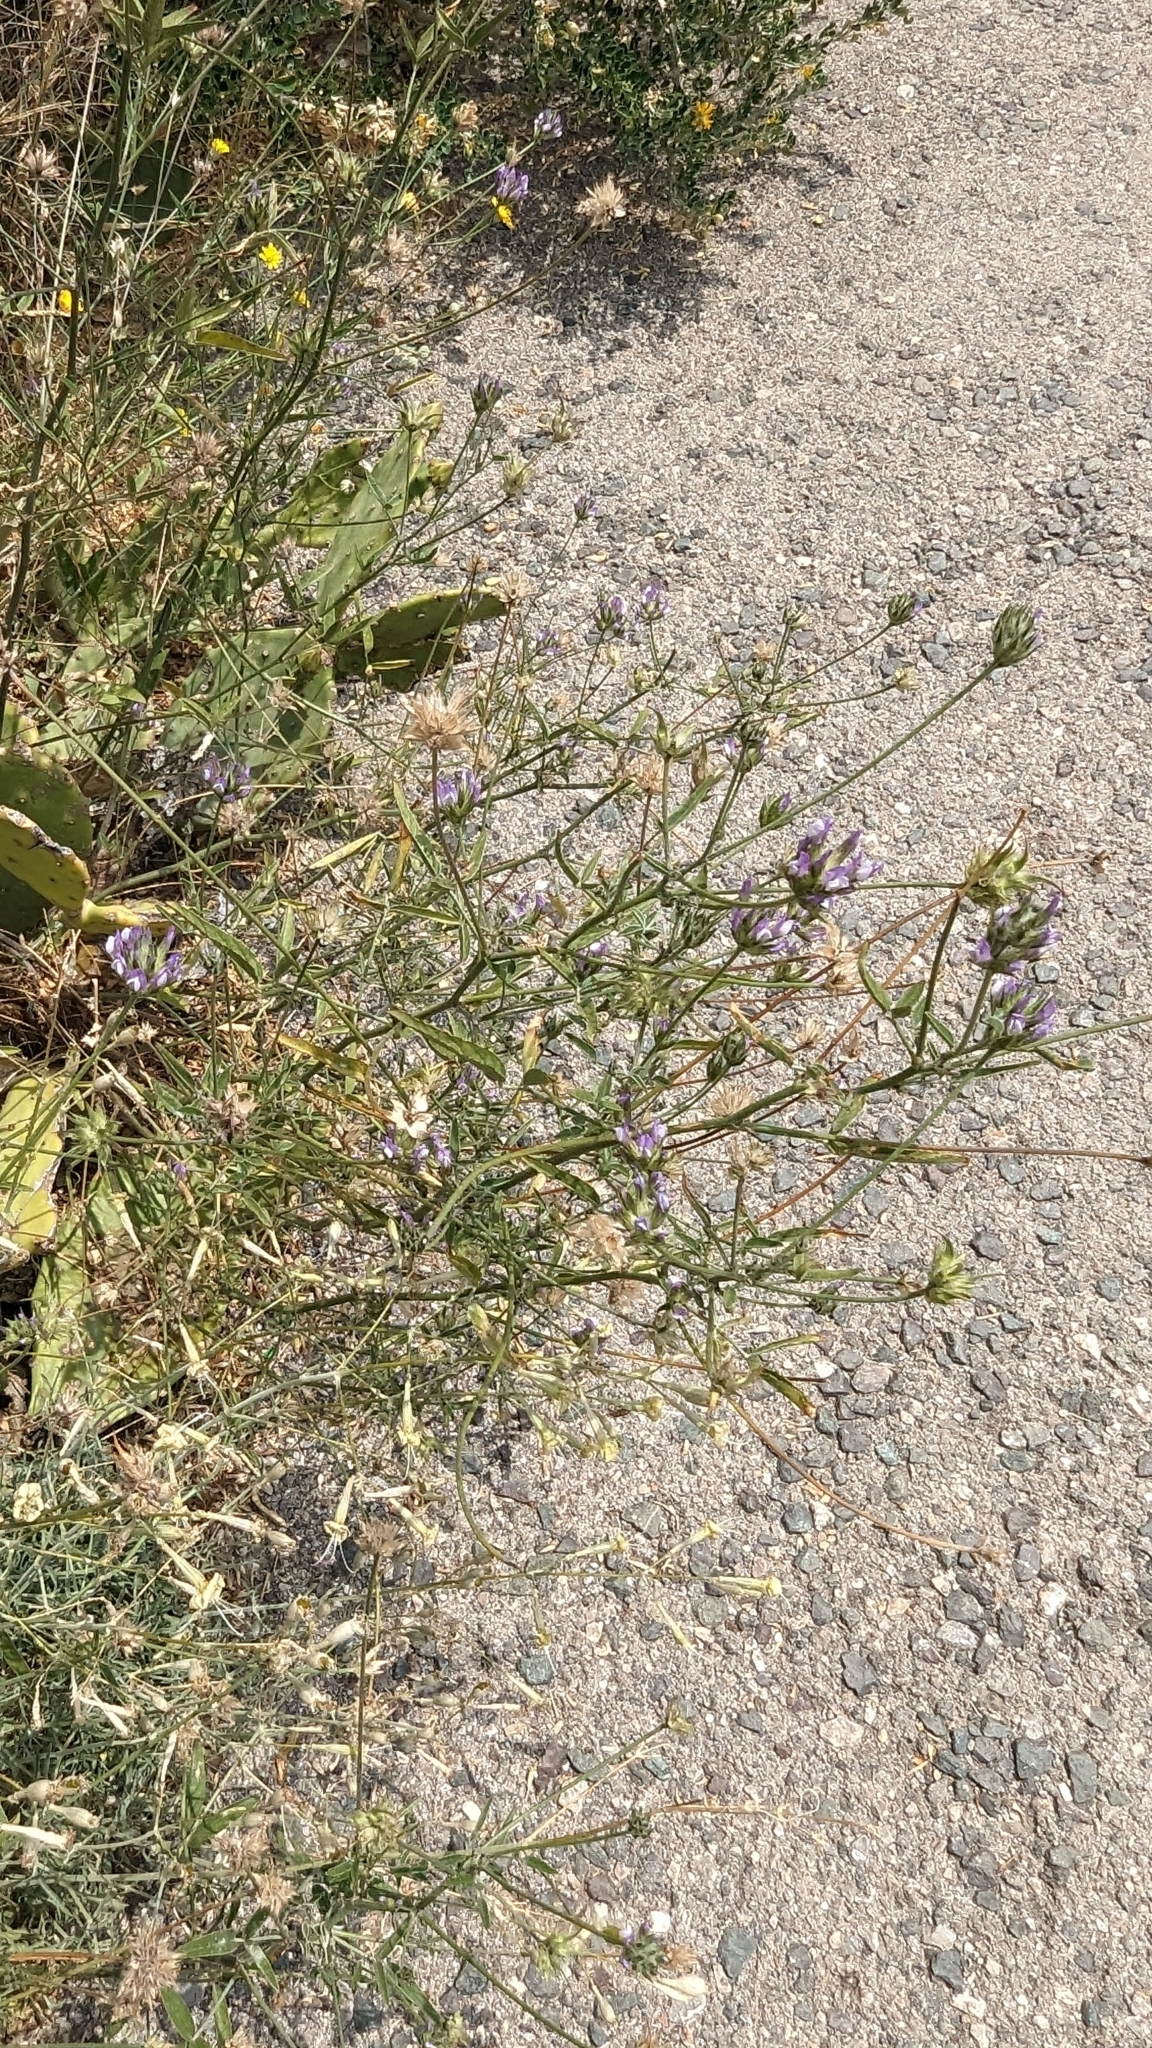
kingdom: Plantae
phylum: Tracheophyta
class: Magnoliopsida
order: Fabales
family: Fabaceae
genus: Bituminaria
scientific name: Bituminaria bituminosa
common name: Arabian pea
